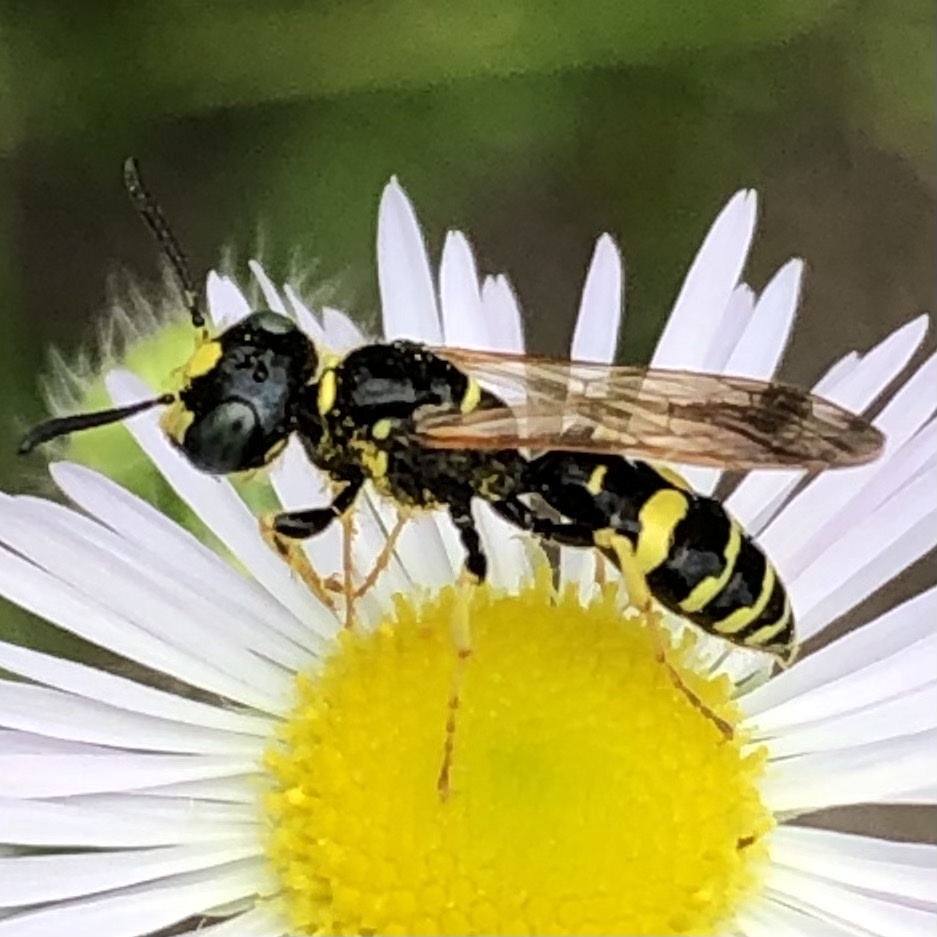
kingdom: Animalia
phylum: Arthropoda
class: Insecta
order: Hymenoptera
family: Crabronidae
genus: Philanthus
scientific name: Philanthus bilunatus
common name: Two moons beewolf
